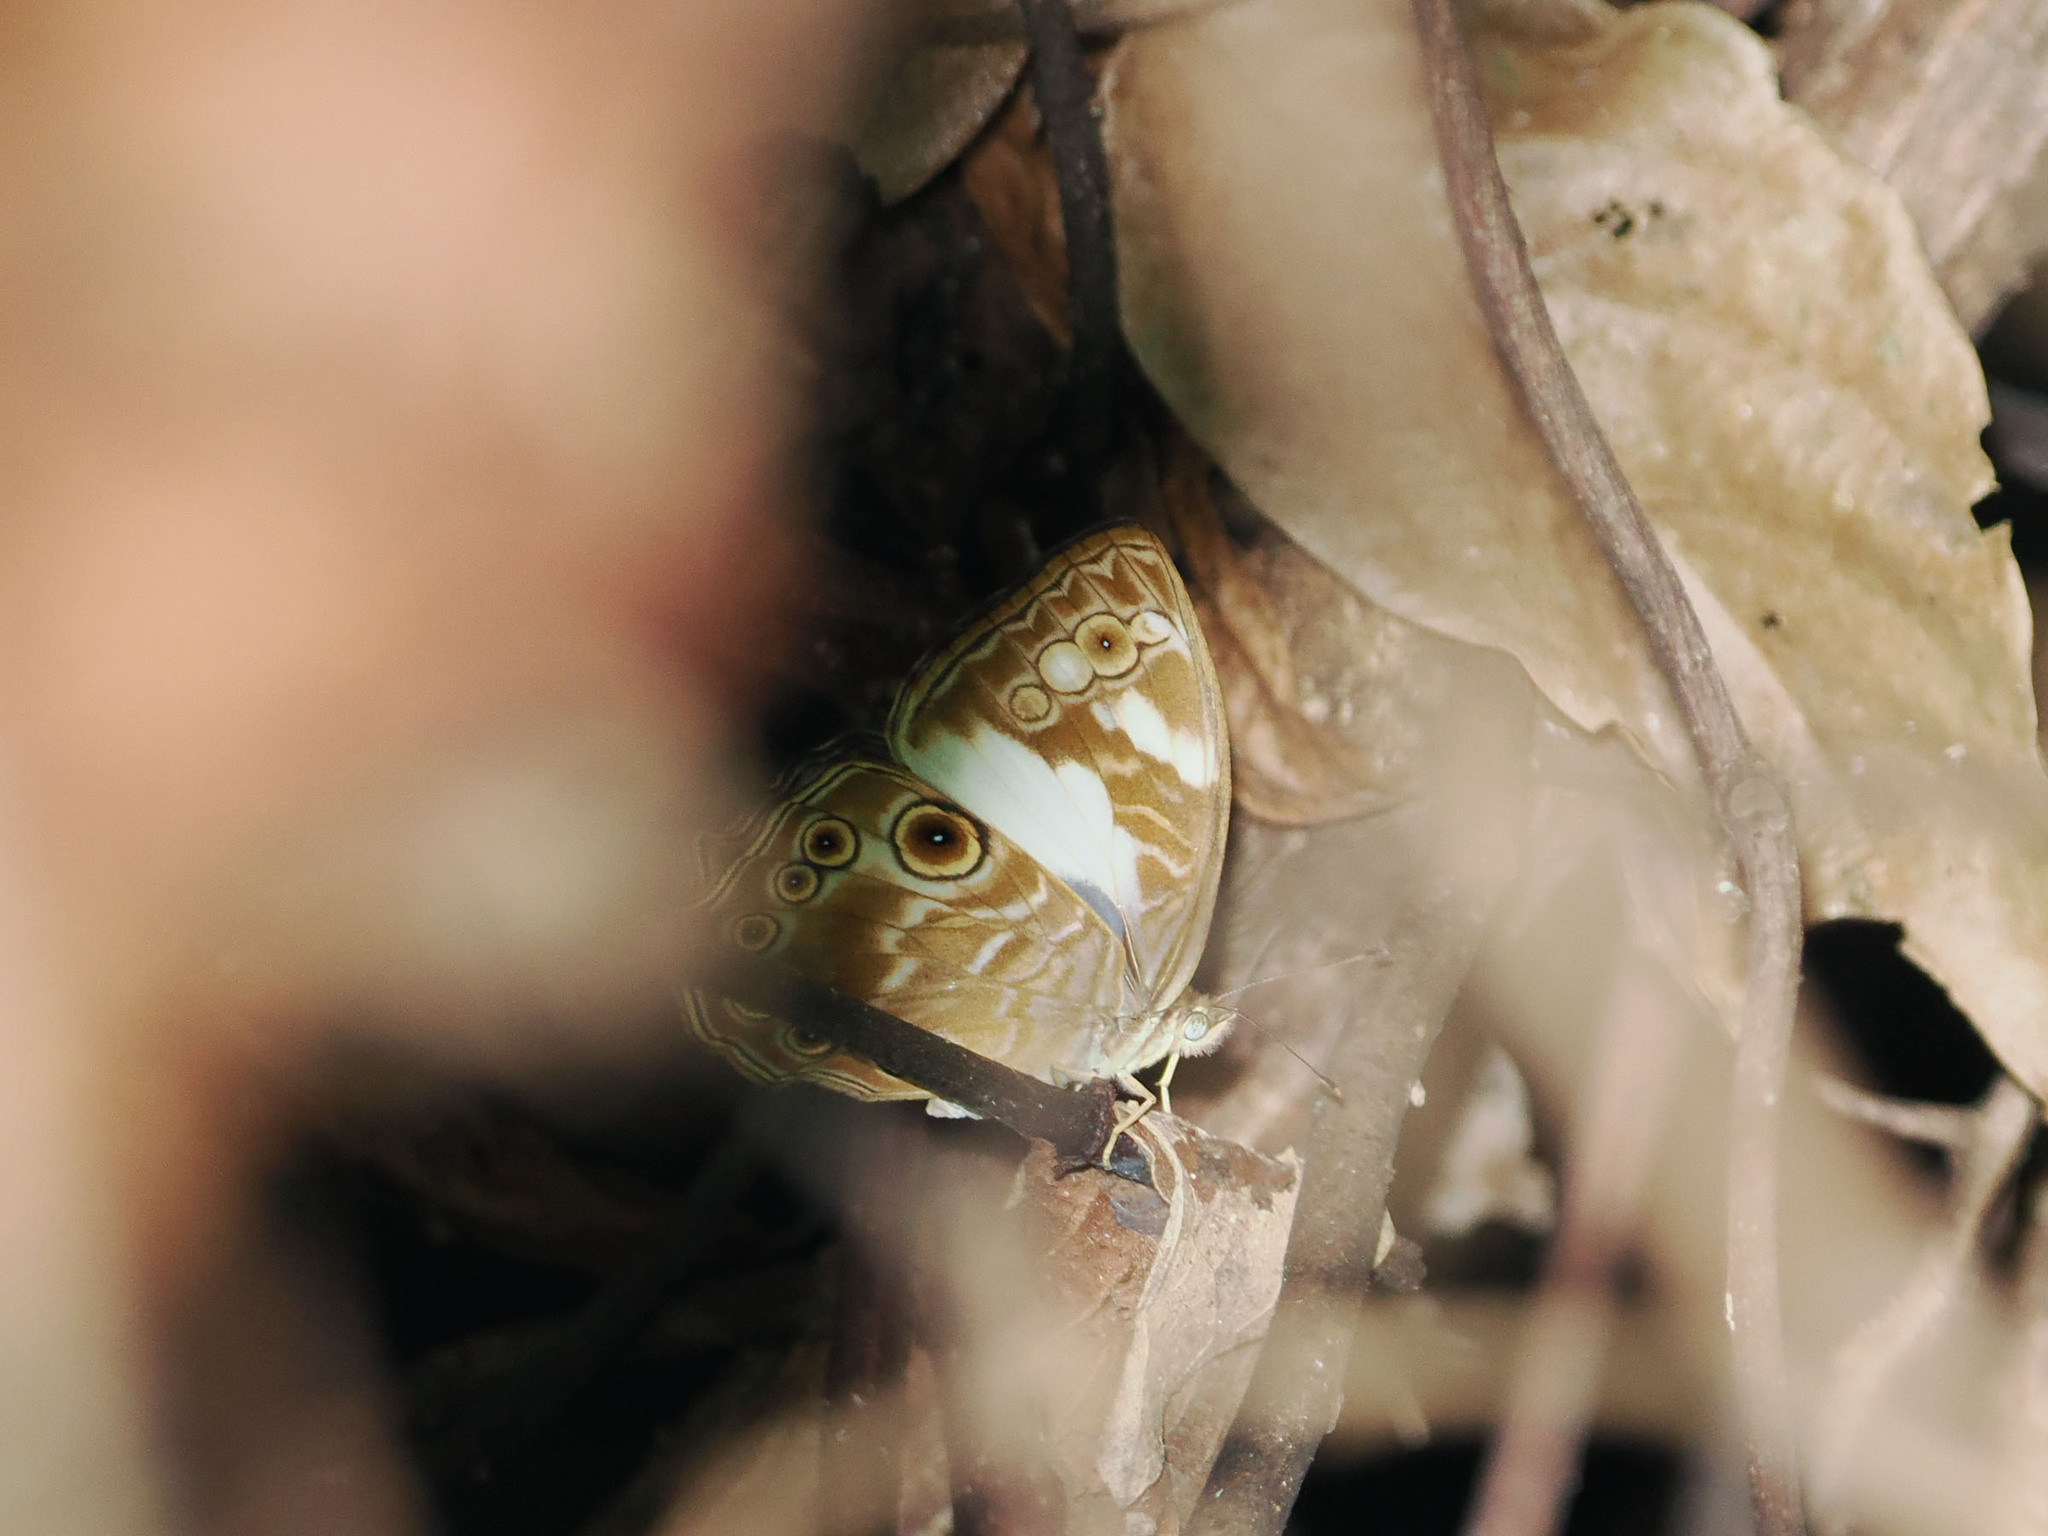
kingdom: Animalia
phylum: Arthropoda
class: Insecta
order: Lepidoptera
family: Nymphalidae
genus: Ptychandra
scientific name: Ptychandra leucogyne
